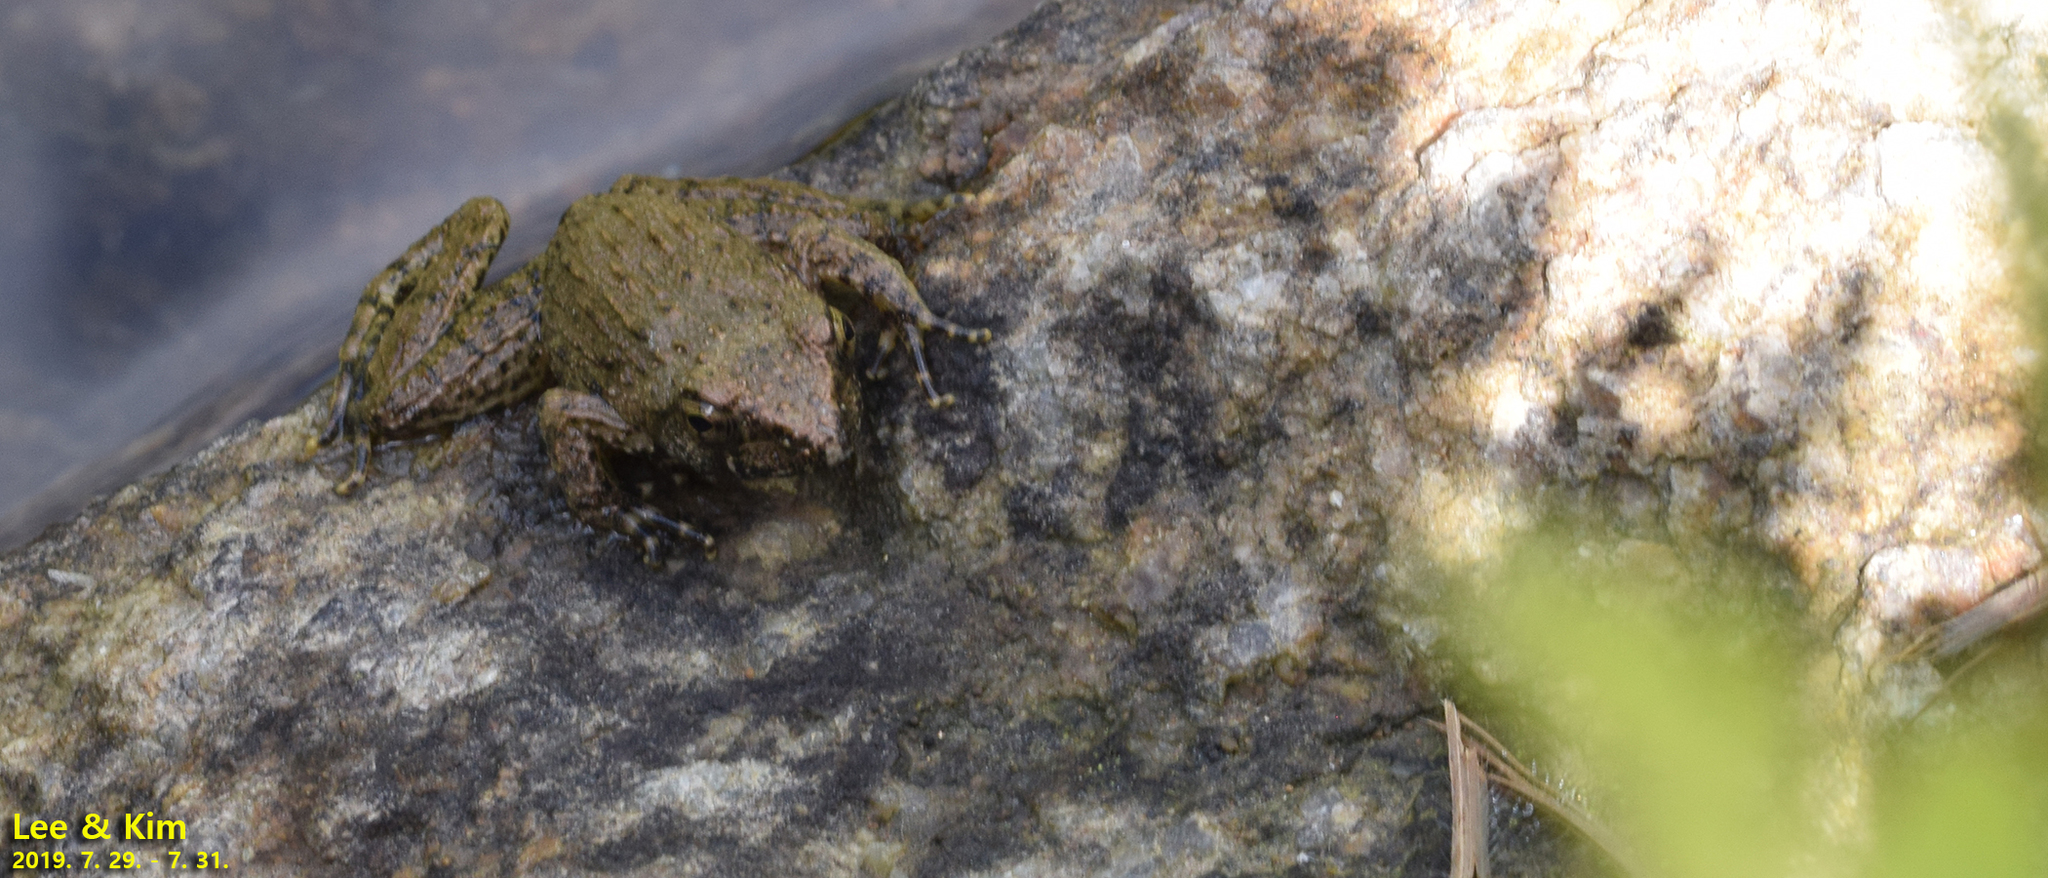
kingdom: Animalia
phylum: Chordata
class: Amphibia
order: Anura
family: Ranidae
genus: Glandirana
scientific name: Glandirana emeljanovi
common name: Northeast china rough-skinned frog
